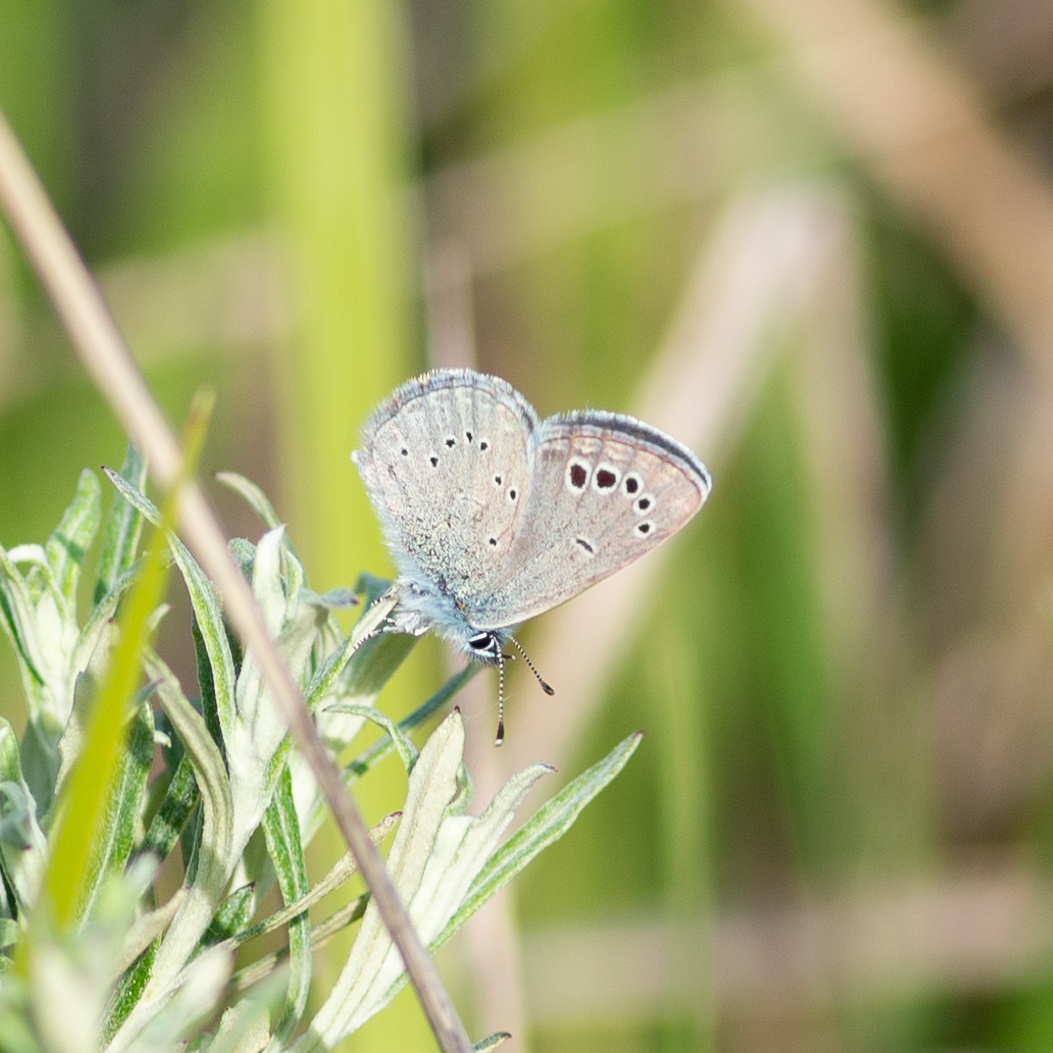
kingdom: Animalia
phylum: Arthropoda
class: Insecta
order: Lepidoptera
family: Lycaenidae
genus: Glaucopsyche
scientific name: Glaucopsyche melanops
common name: Black-eyed blue
